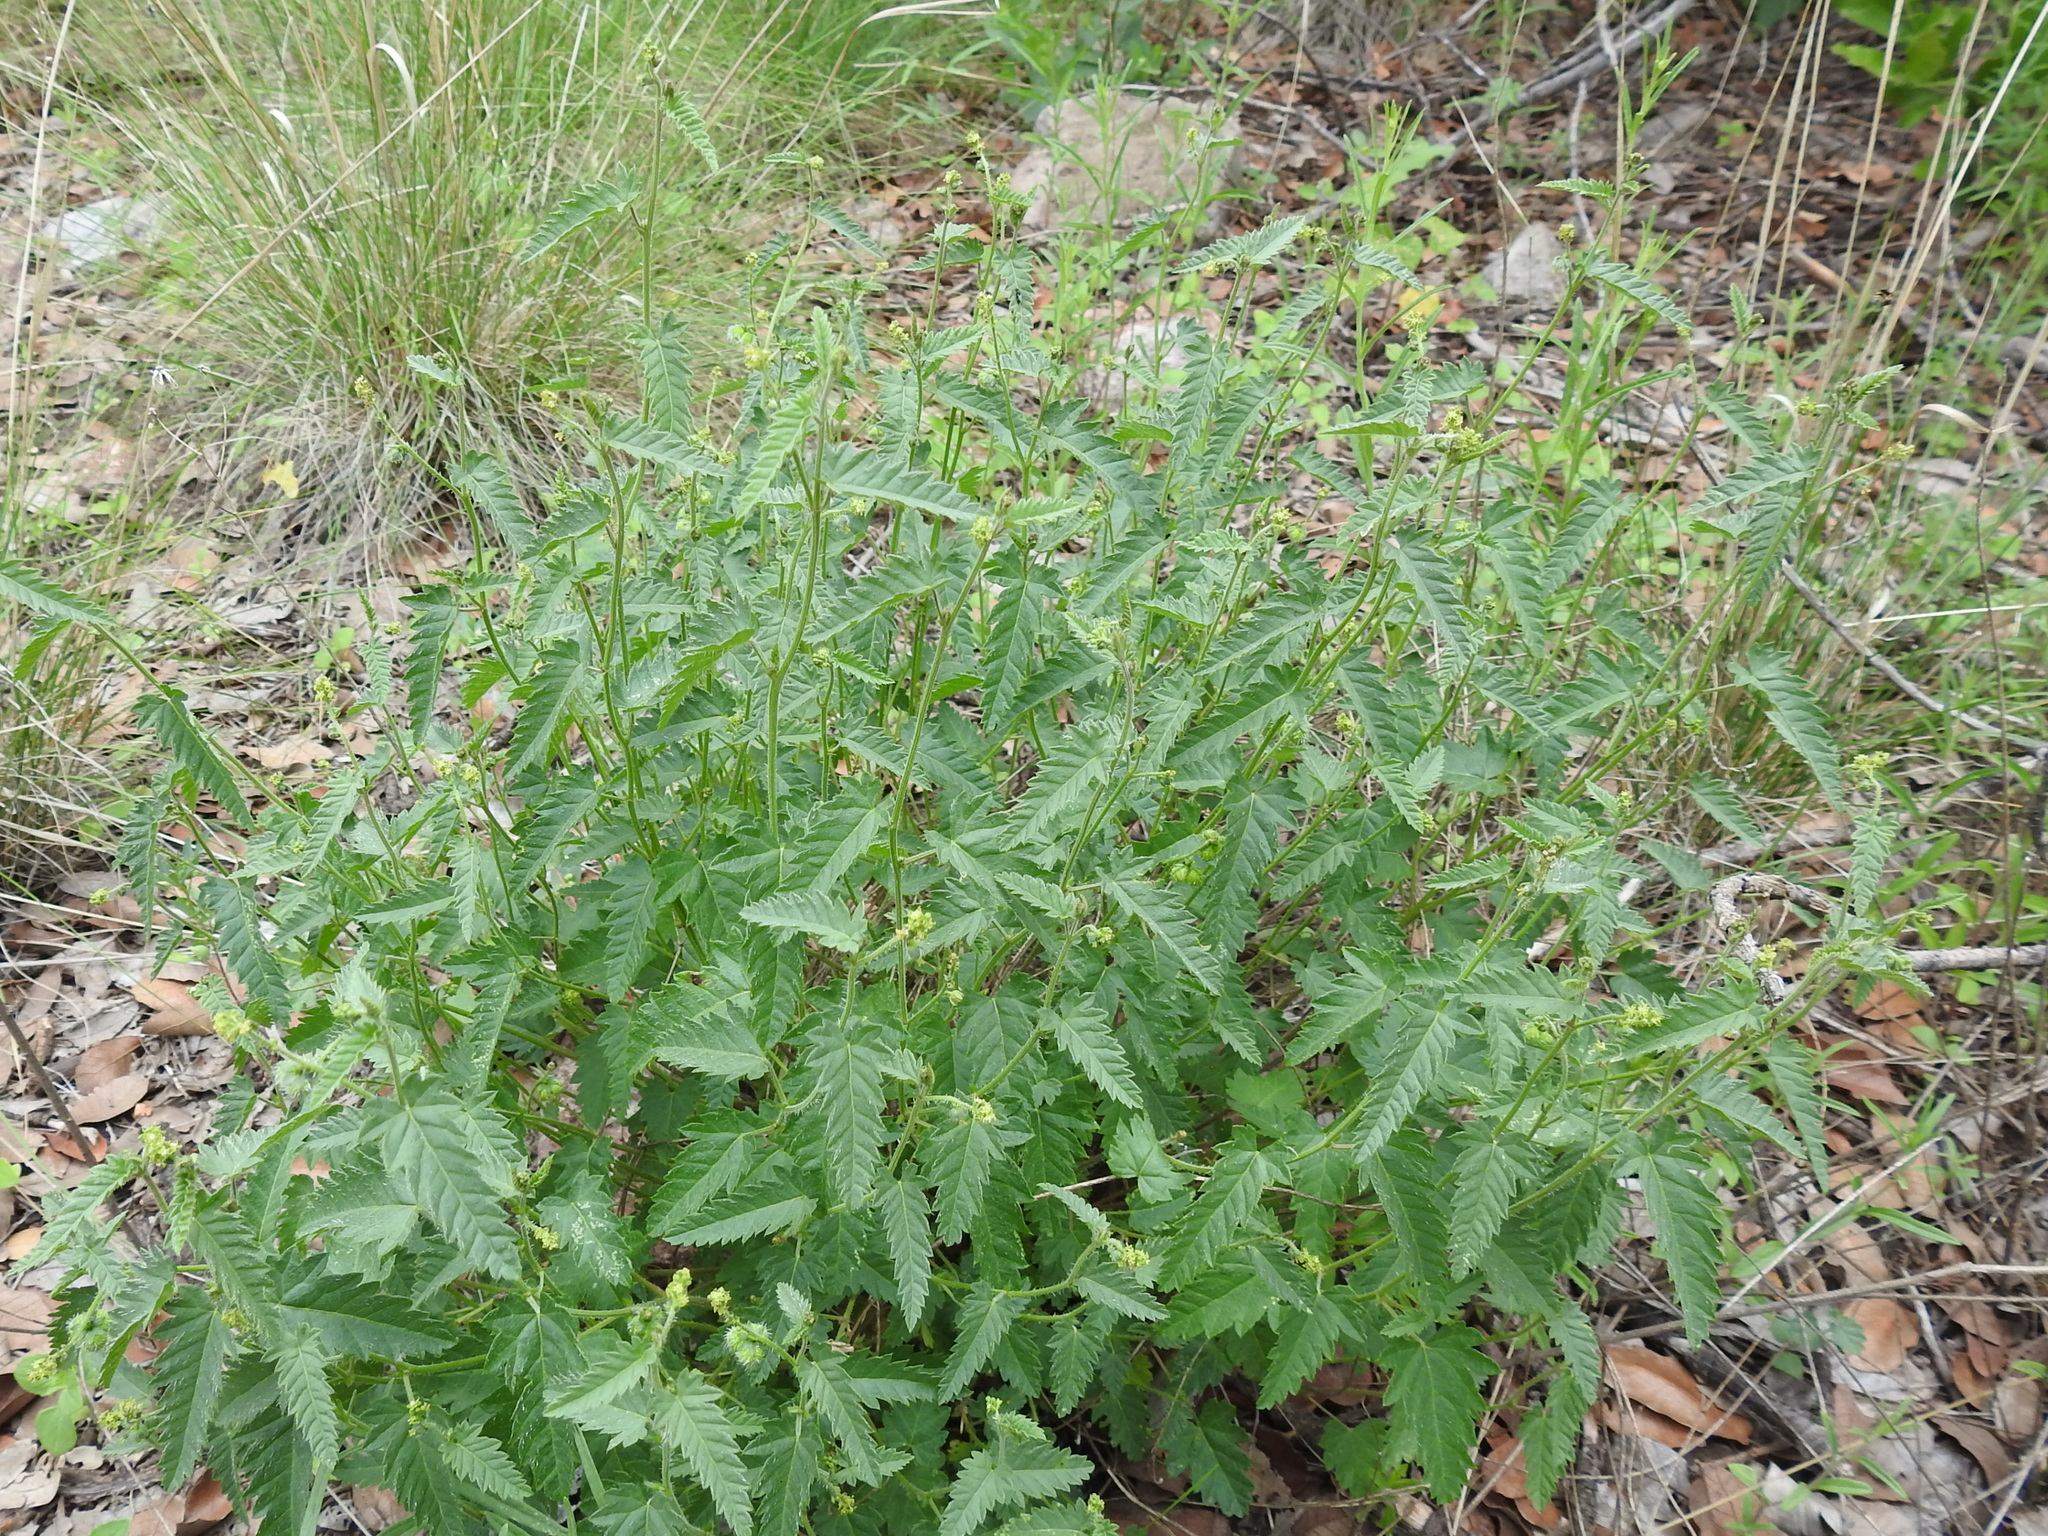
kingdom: Plantae
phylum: Tracheophyta
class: Magnoliopsida
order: Malpighiales
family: Euphorbiaceae
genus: Tragia
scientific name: Tragia ramosa
